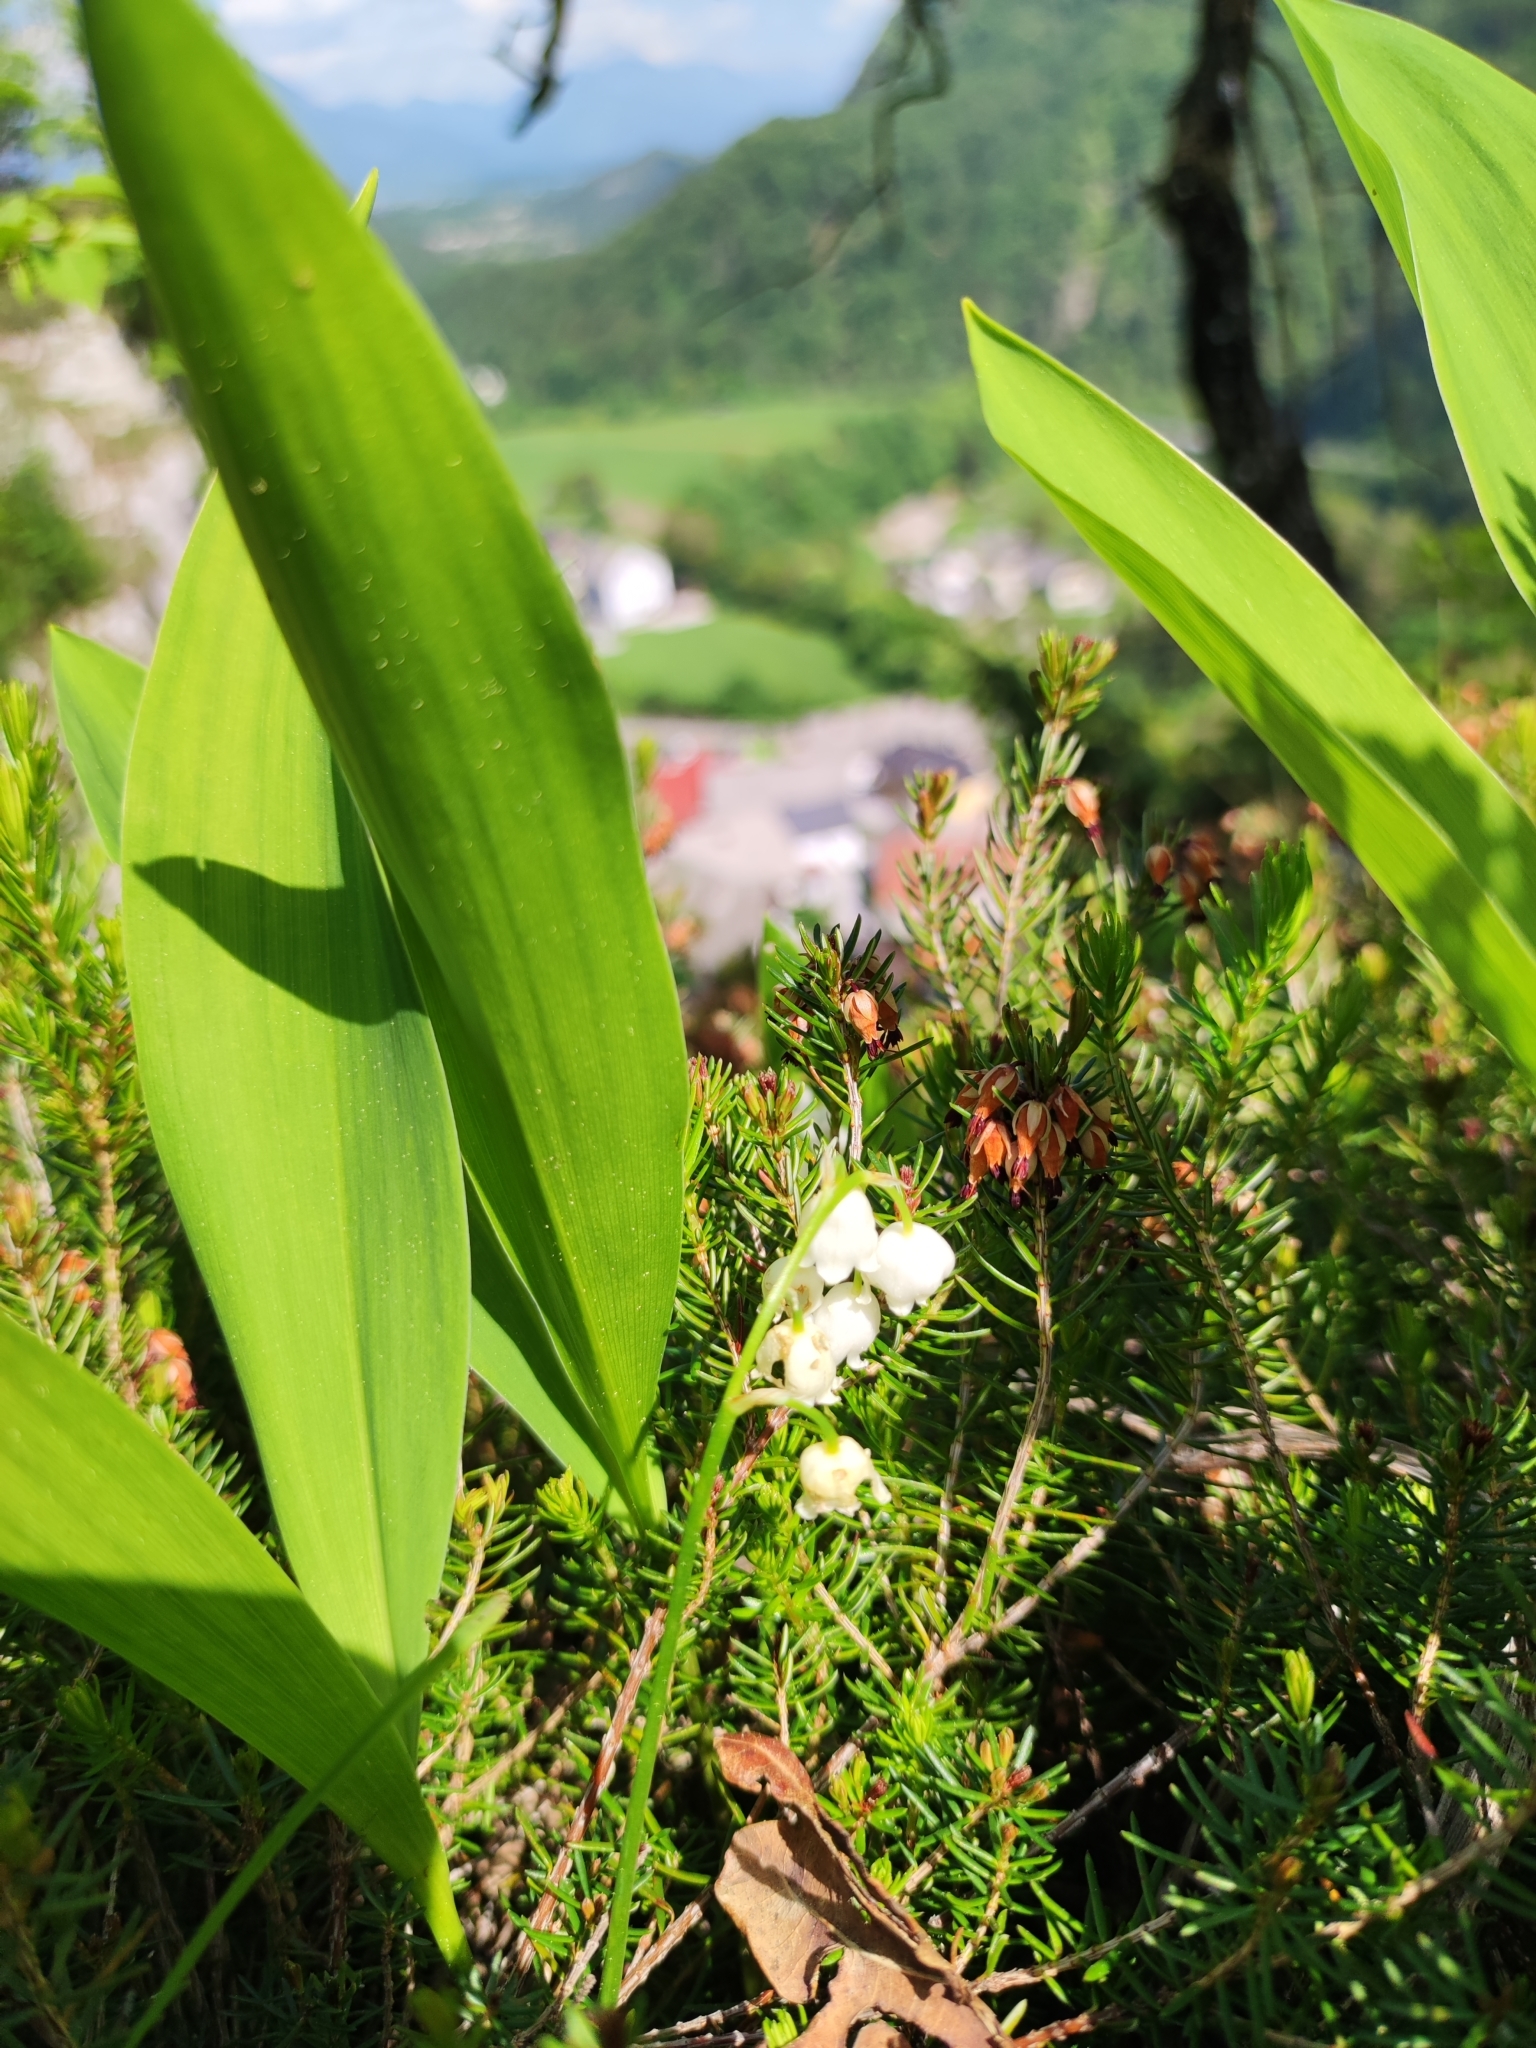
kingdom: Plantae
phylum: Tracheophyta
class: Liliopsida
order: Asparagales
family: Asparagaceae
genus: Convallaria
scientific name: Convallaria majalis
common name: Lily-of-the-valley
